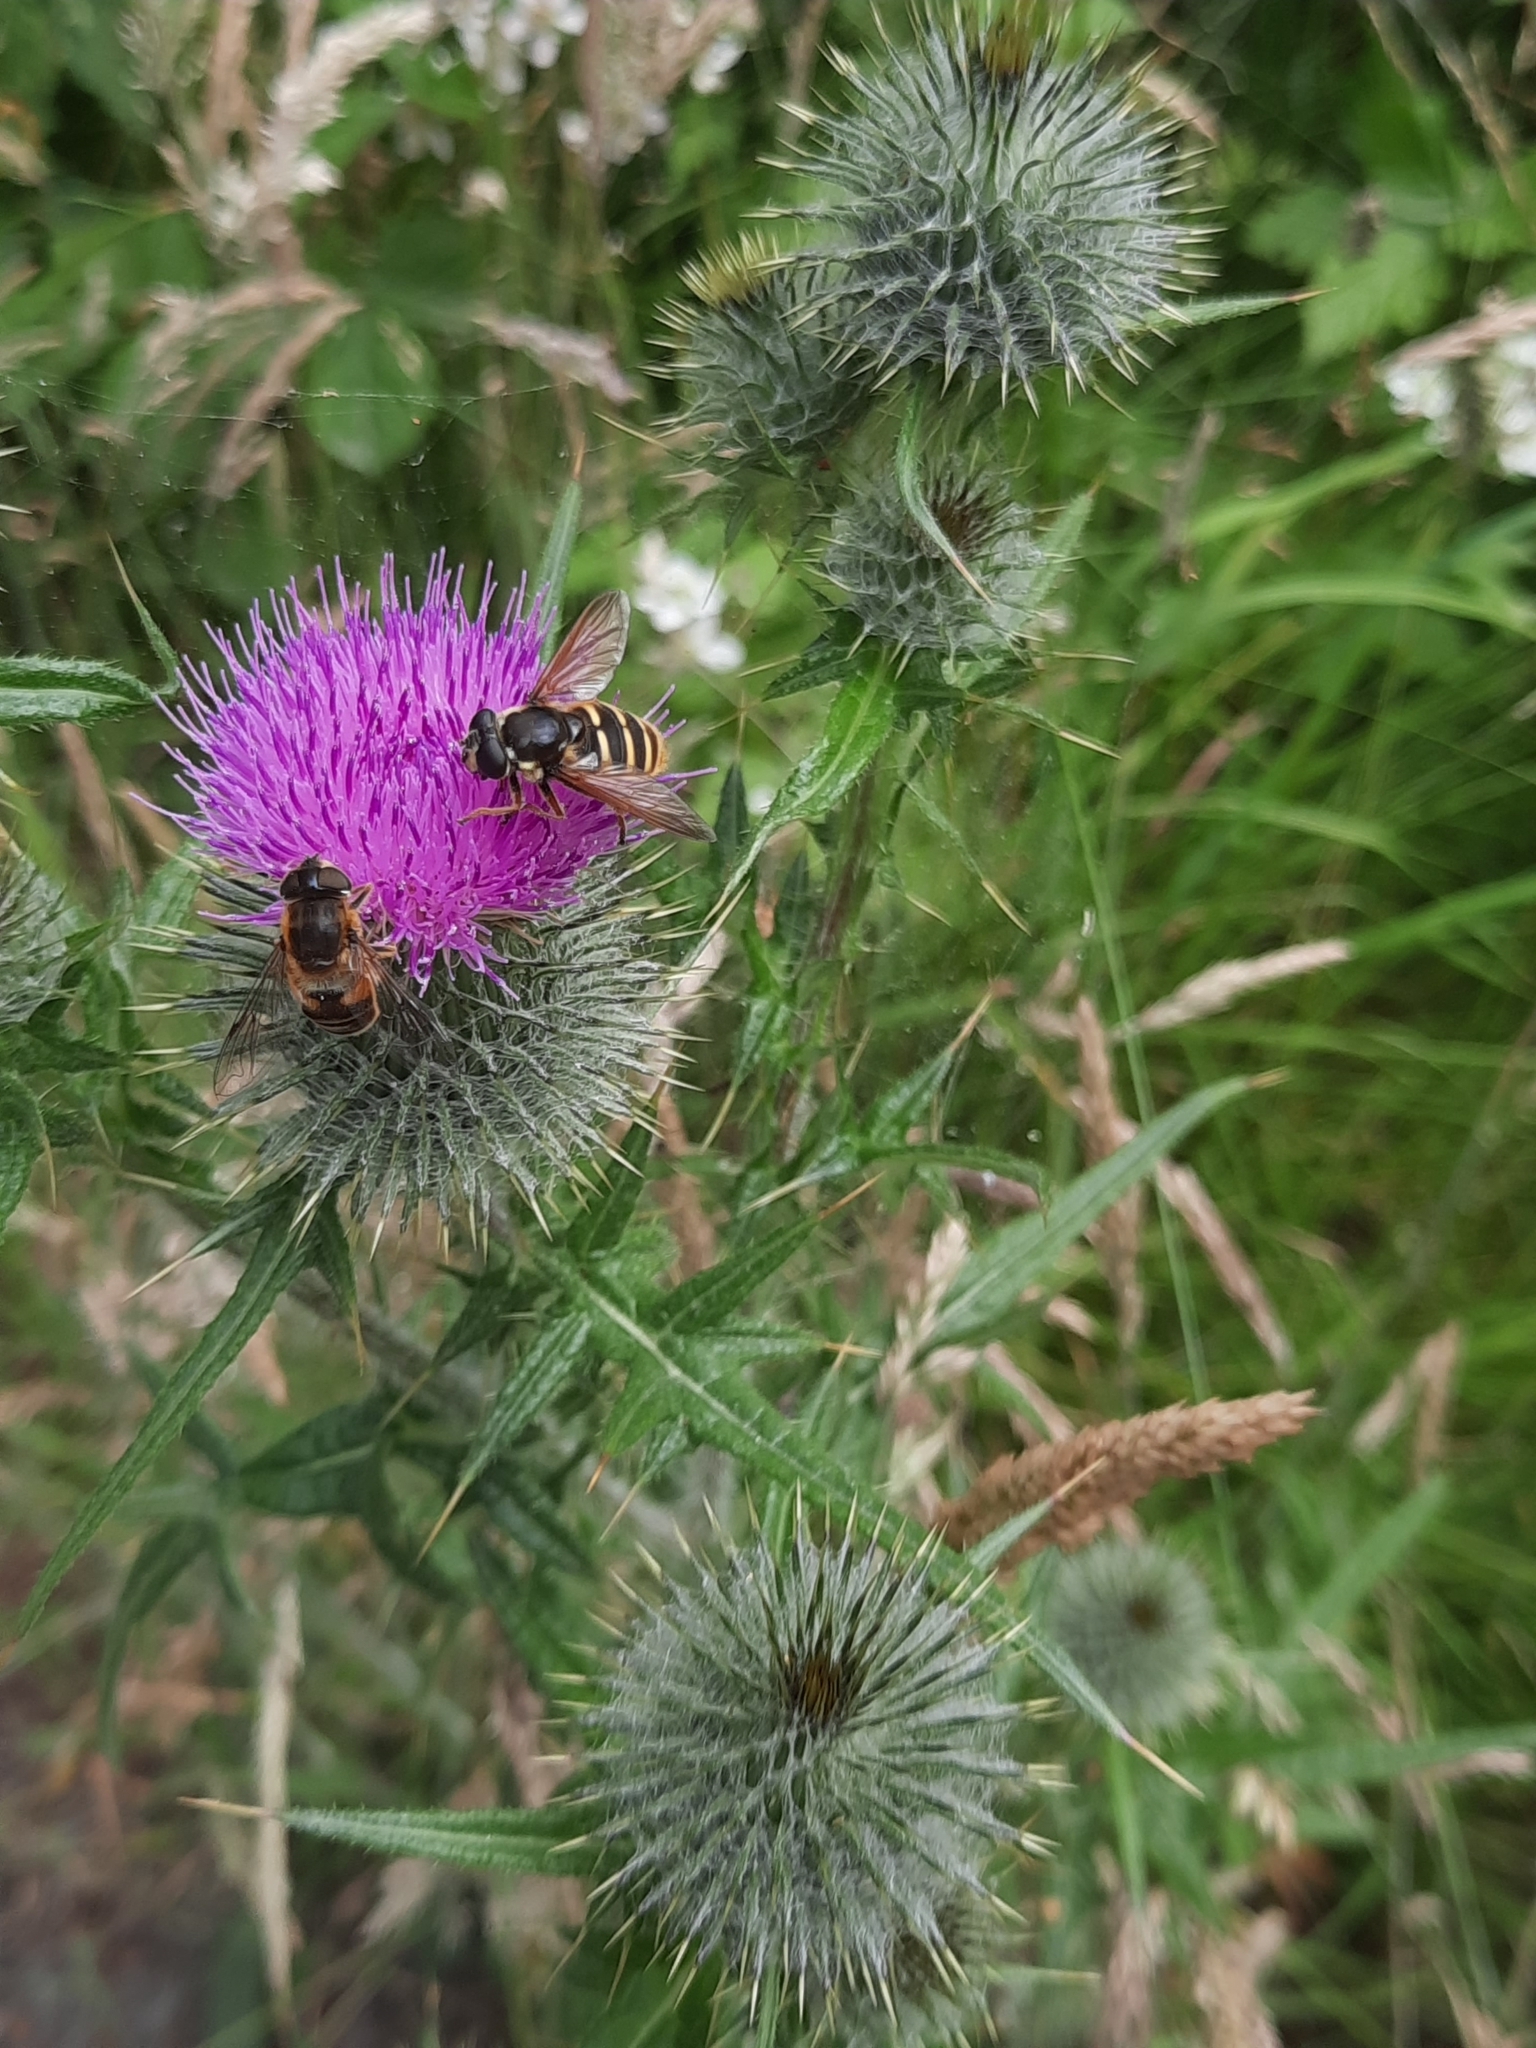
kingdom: Animalia
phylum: Arthropoda
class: Insecta
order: Diptera
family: Syrphidae
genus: Sericomyia
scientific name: Sericomyia silentis
